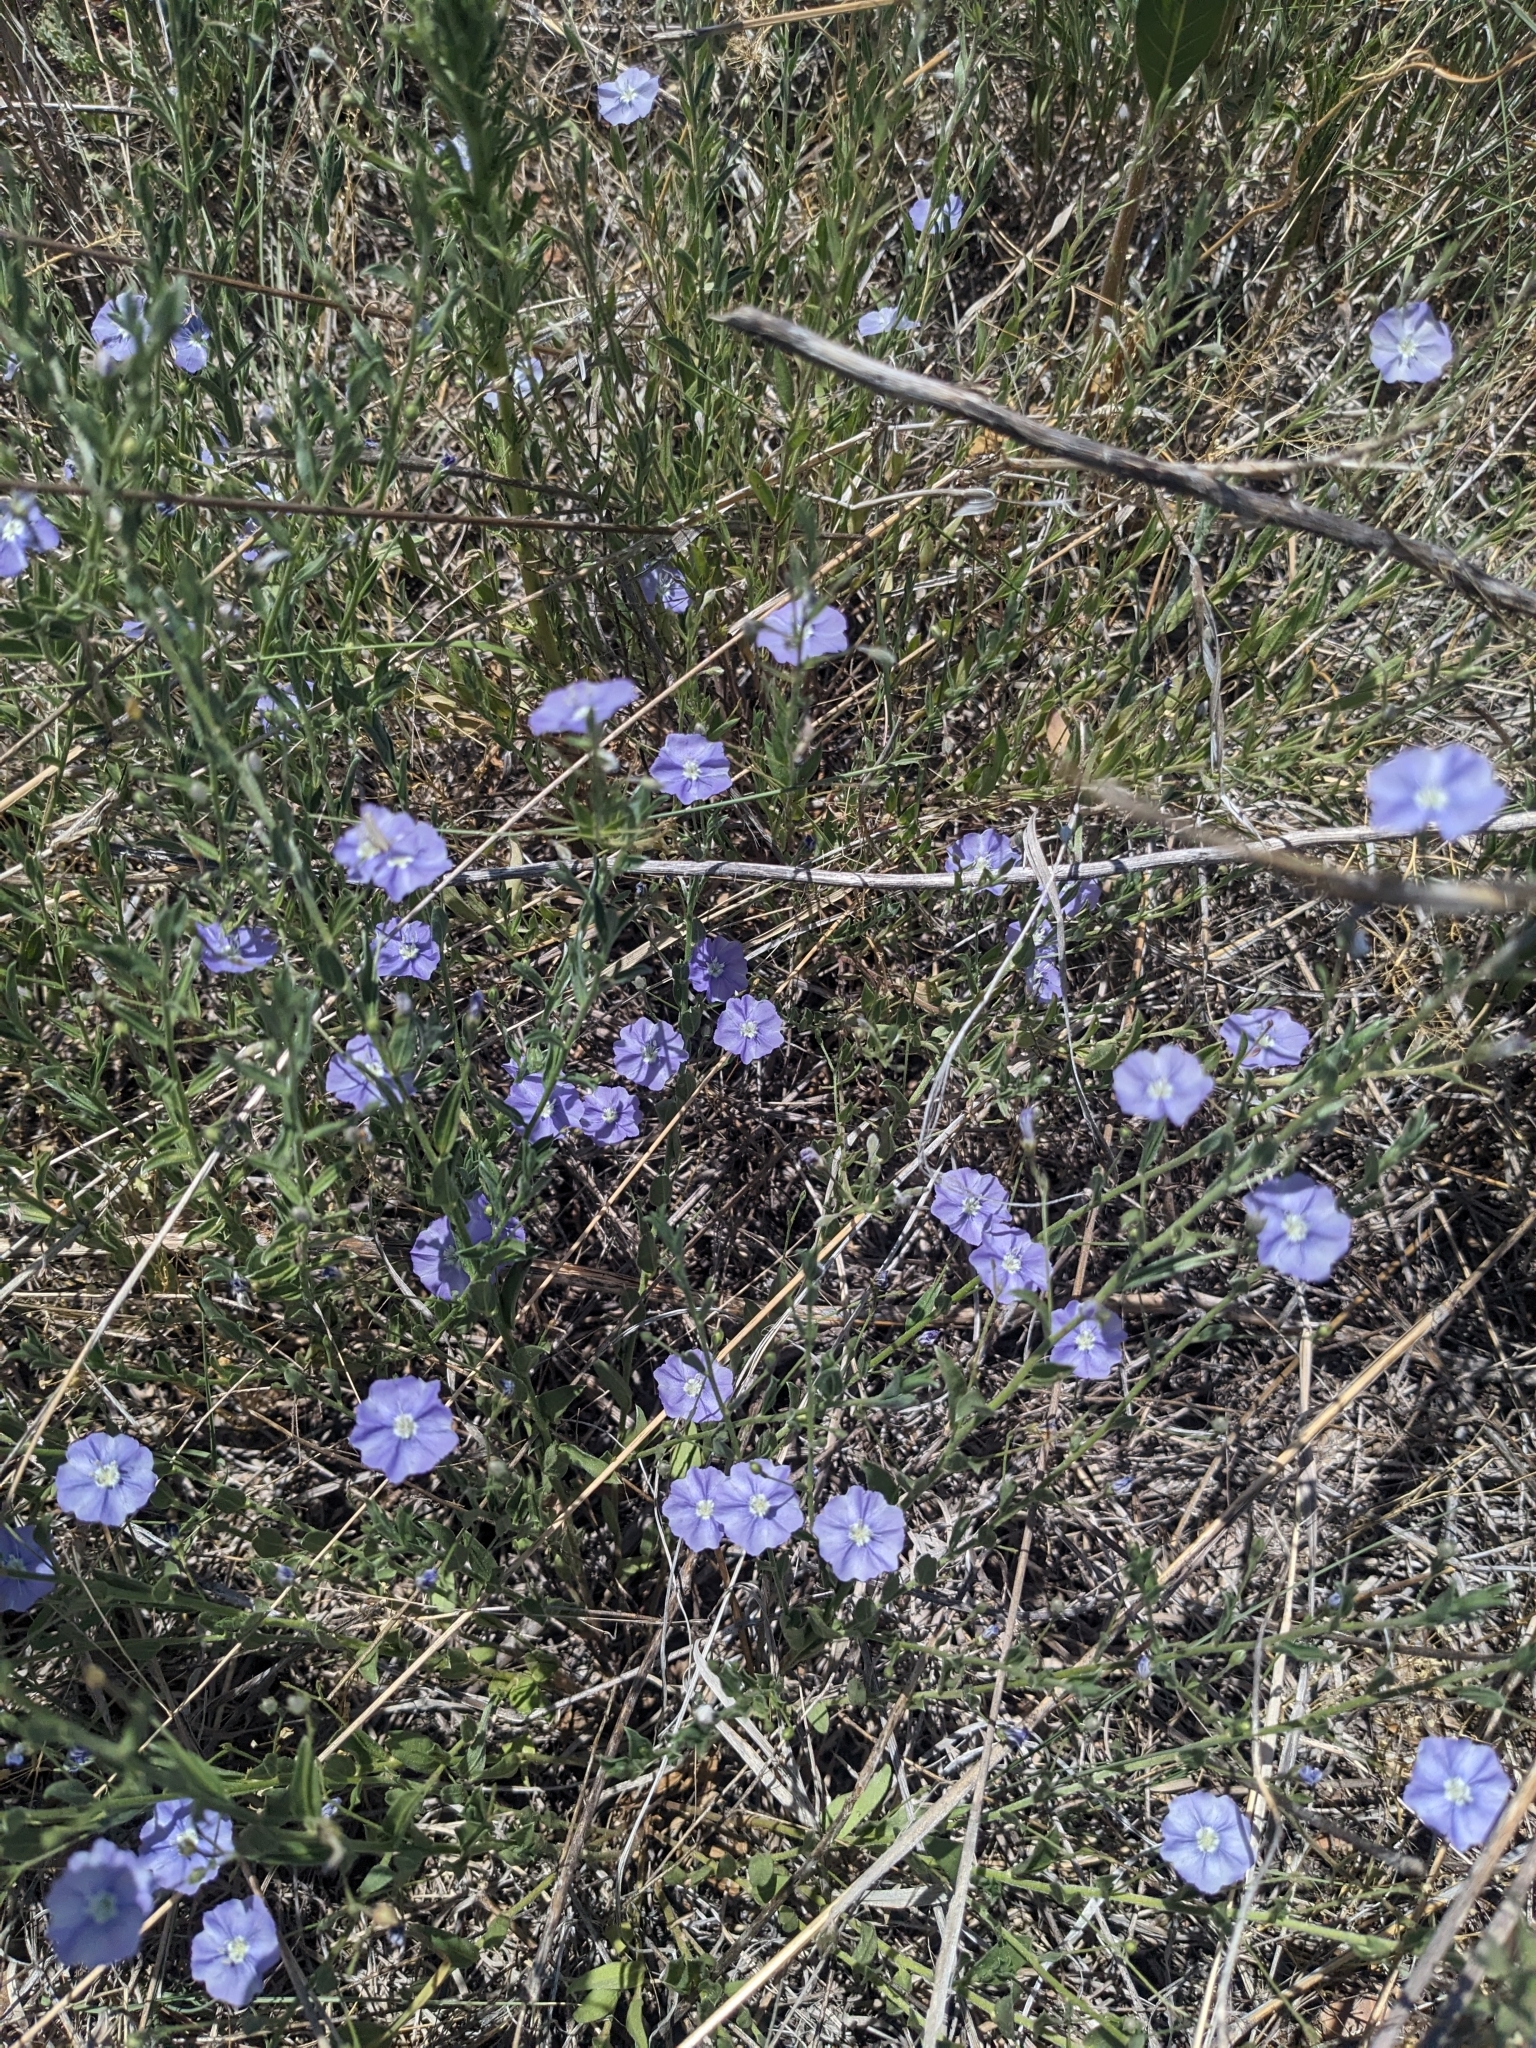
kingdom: Plantae
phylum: Tracheophyta
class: Magnoliopsida
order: Solanales
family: Convolvulaceae
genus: Evolvulus
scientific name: Evolvulus arizonicus
